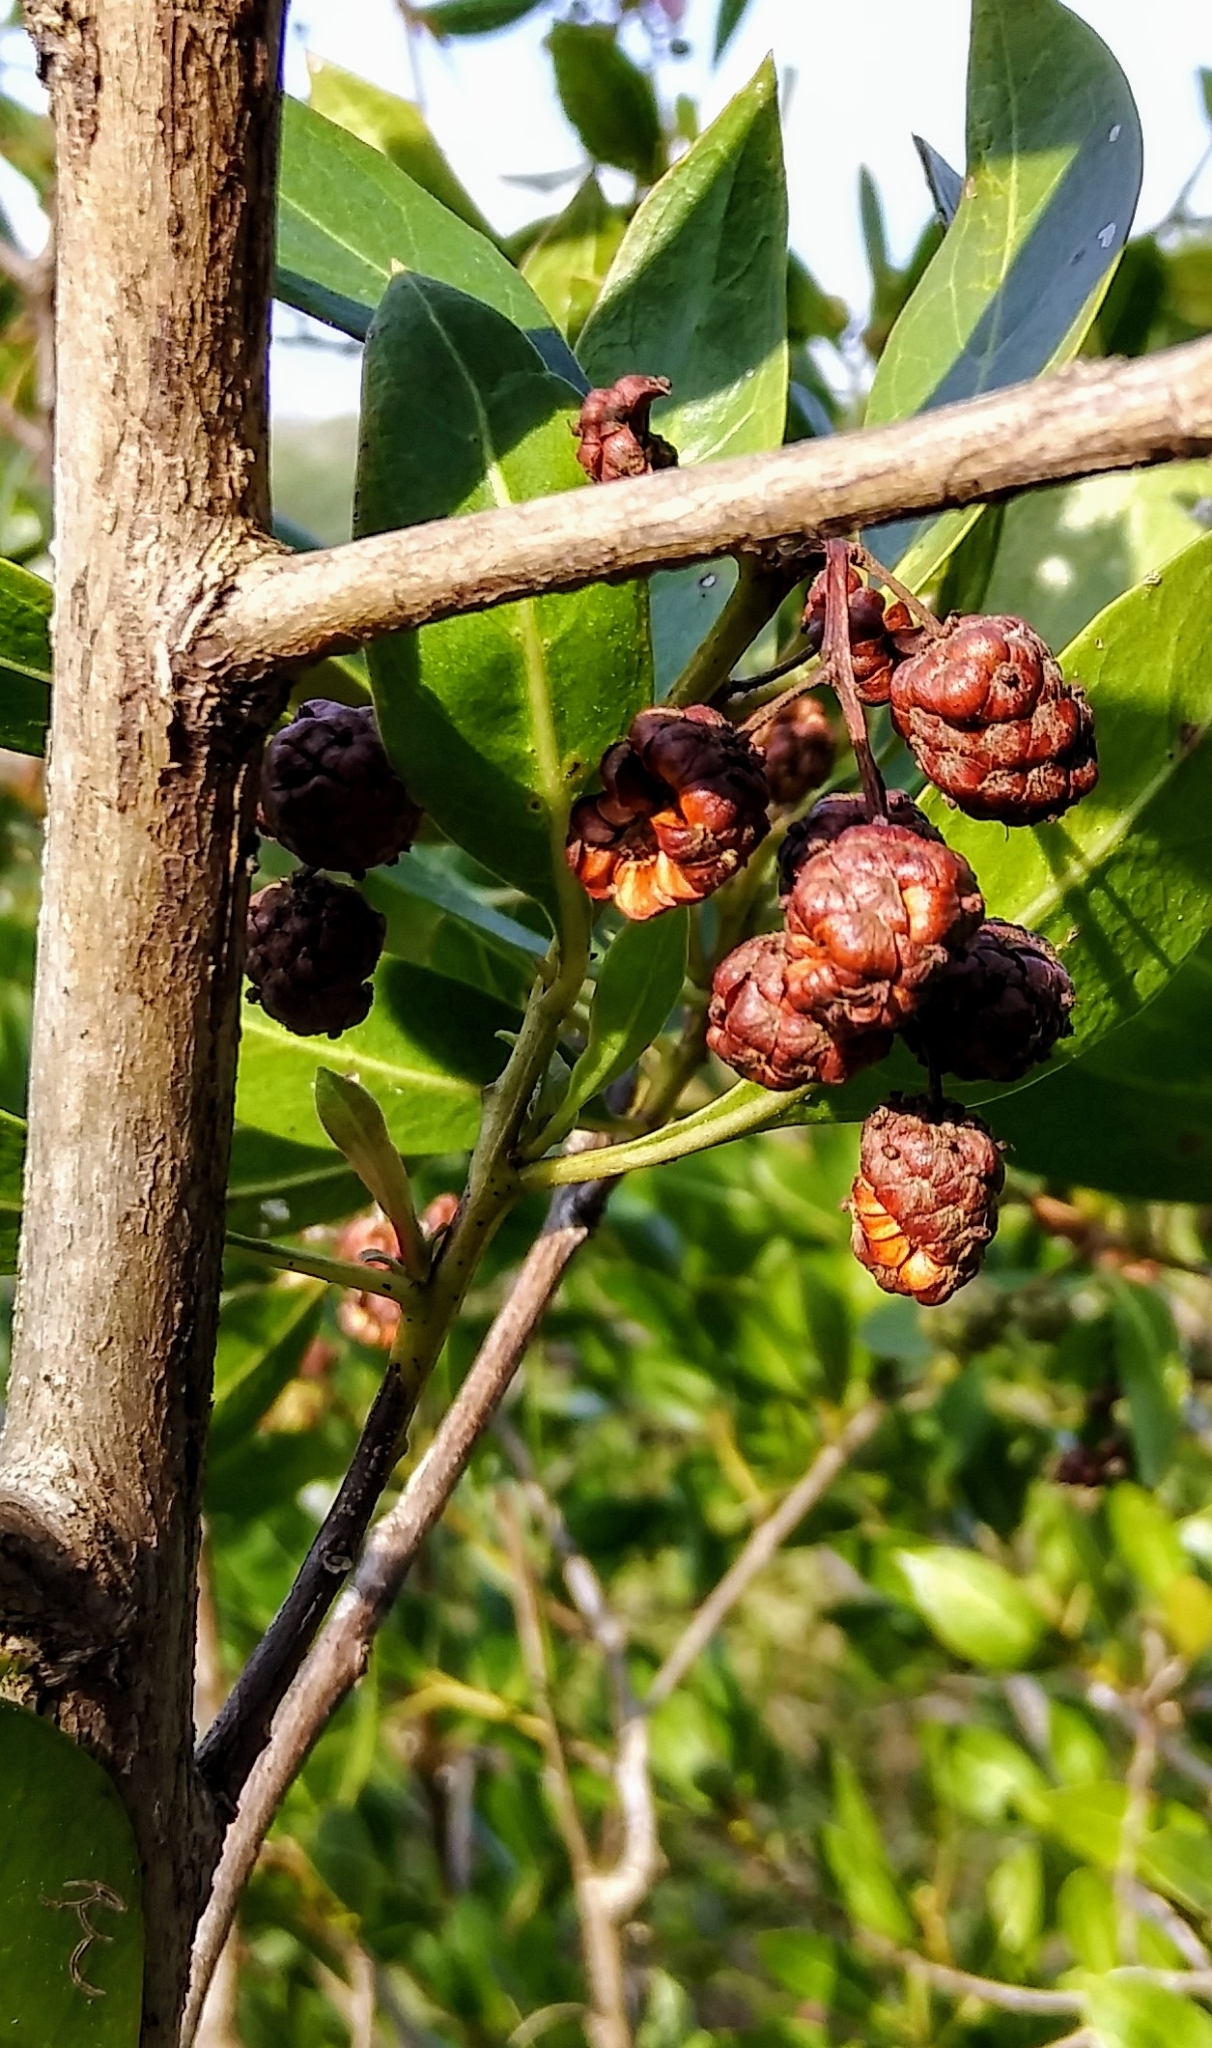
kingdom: Plantae
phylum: Tracheophyta
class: Magnoliopsida
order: Myrtales
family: Combretaceae
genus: Conocarpus
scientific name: Conocarpus erectus
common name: Button mangrove
